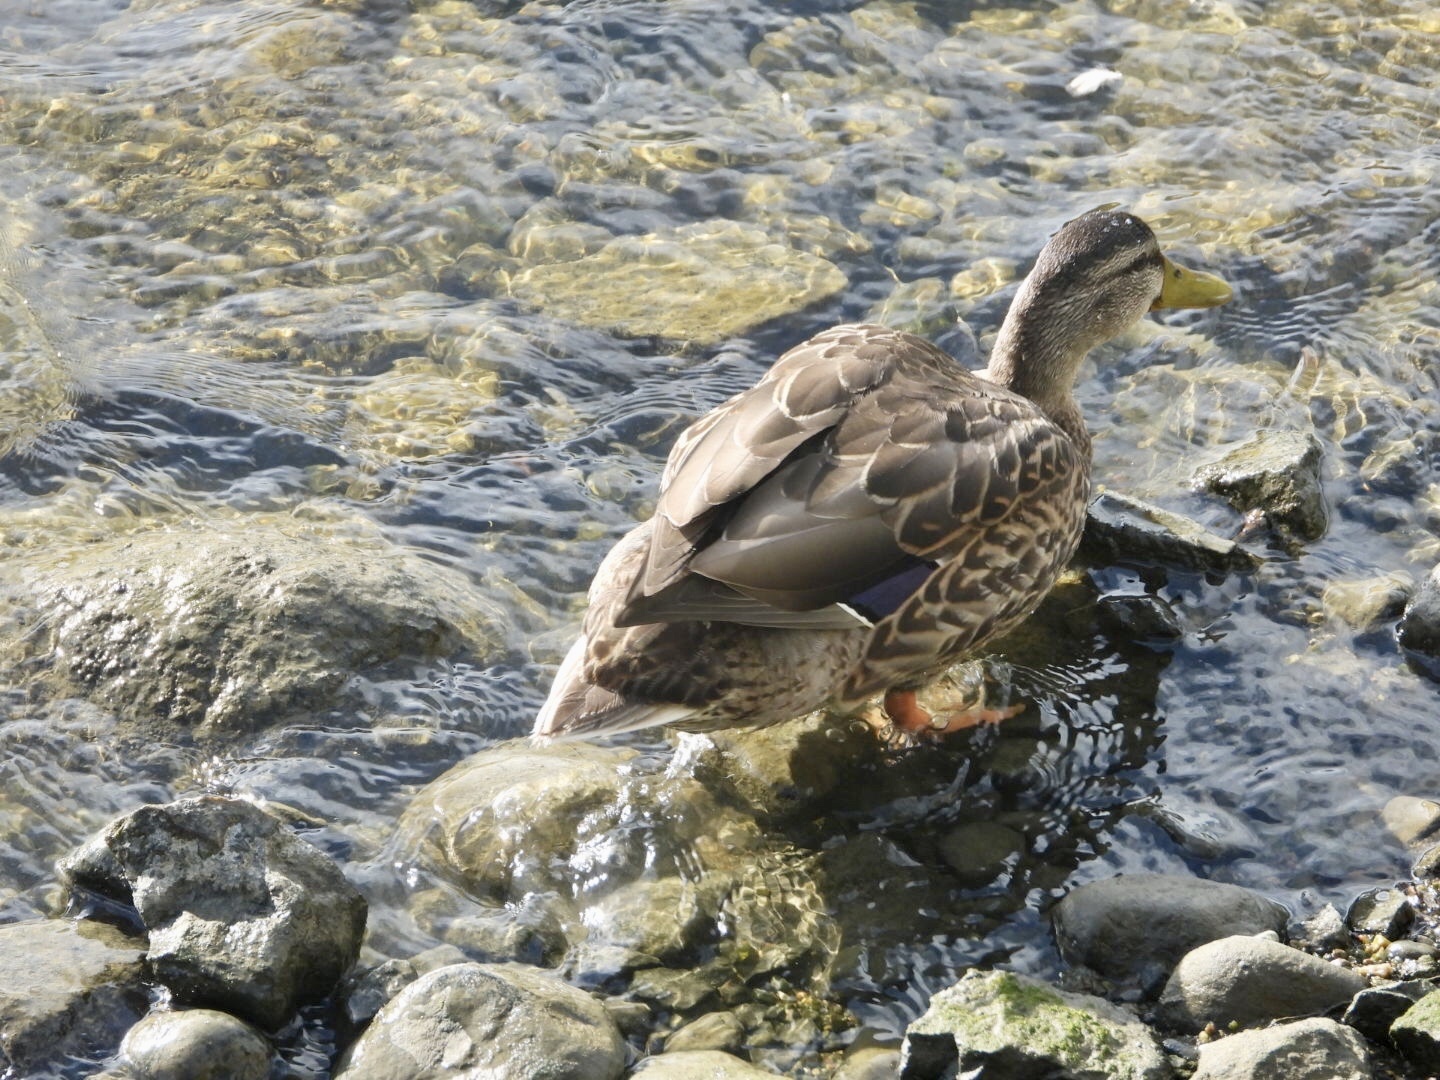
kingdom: Animalia
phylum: Chordata
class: Aves
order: Anseriformes
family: Anatidae
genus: Anas
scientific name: Anas platyrhynchos
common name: Mallard
